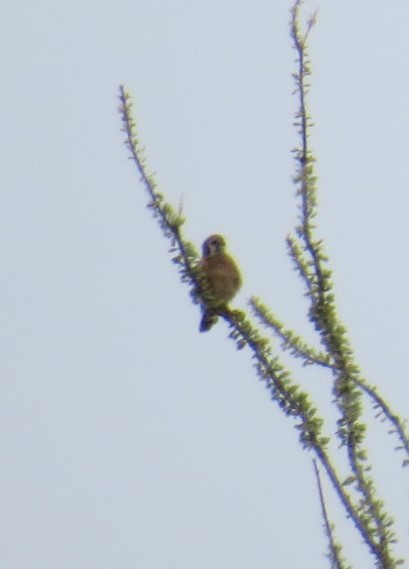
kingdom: Animalia
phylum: Chordata
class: Aves
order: Falconiformes
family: Falconidae
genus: Falco
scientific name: Falco sparverius
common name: American kestrel
